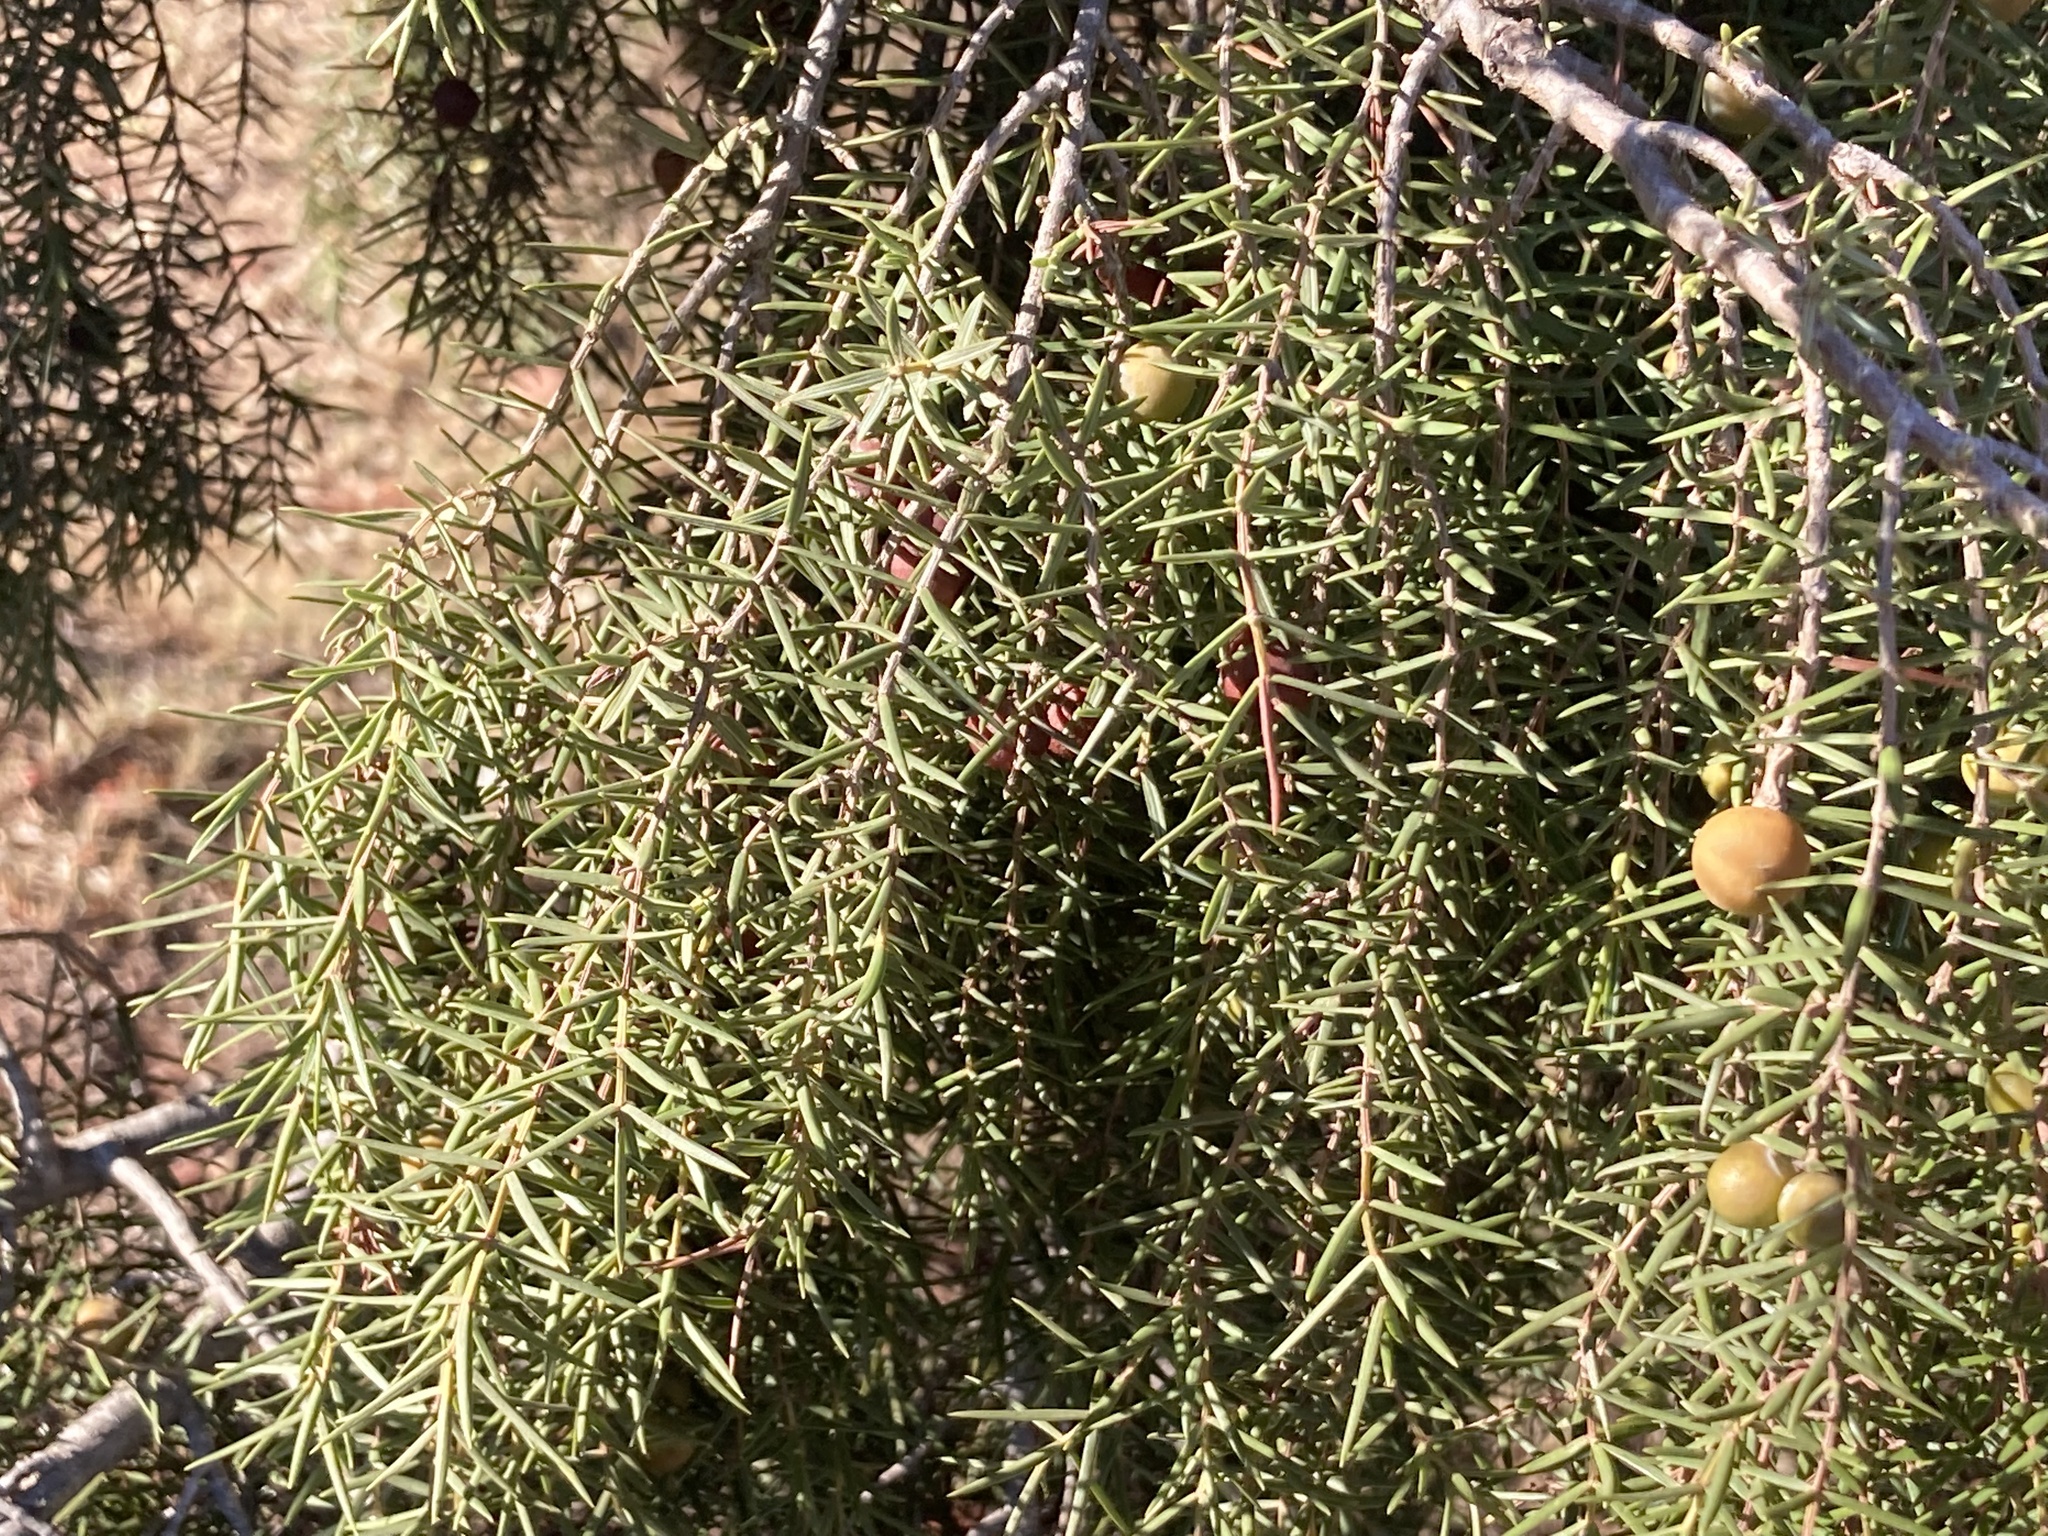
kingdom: Plantae
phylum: Tracheophyta
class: Pinopsida
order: Pinales
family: Cupressaceae
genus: Juniperus
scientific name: Juniperus oxycedrus
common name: Prickly juniper
